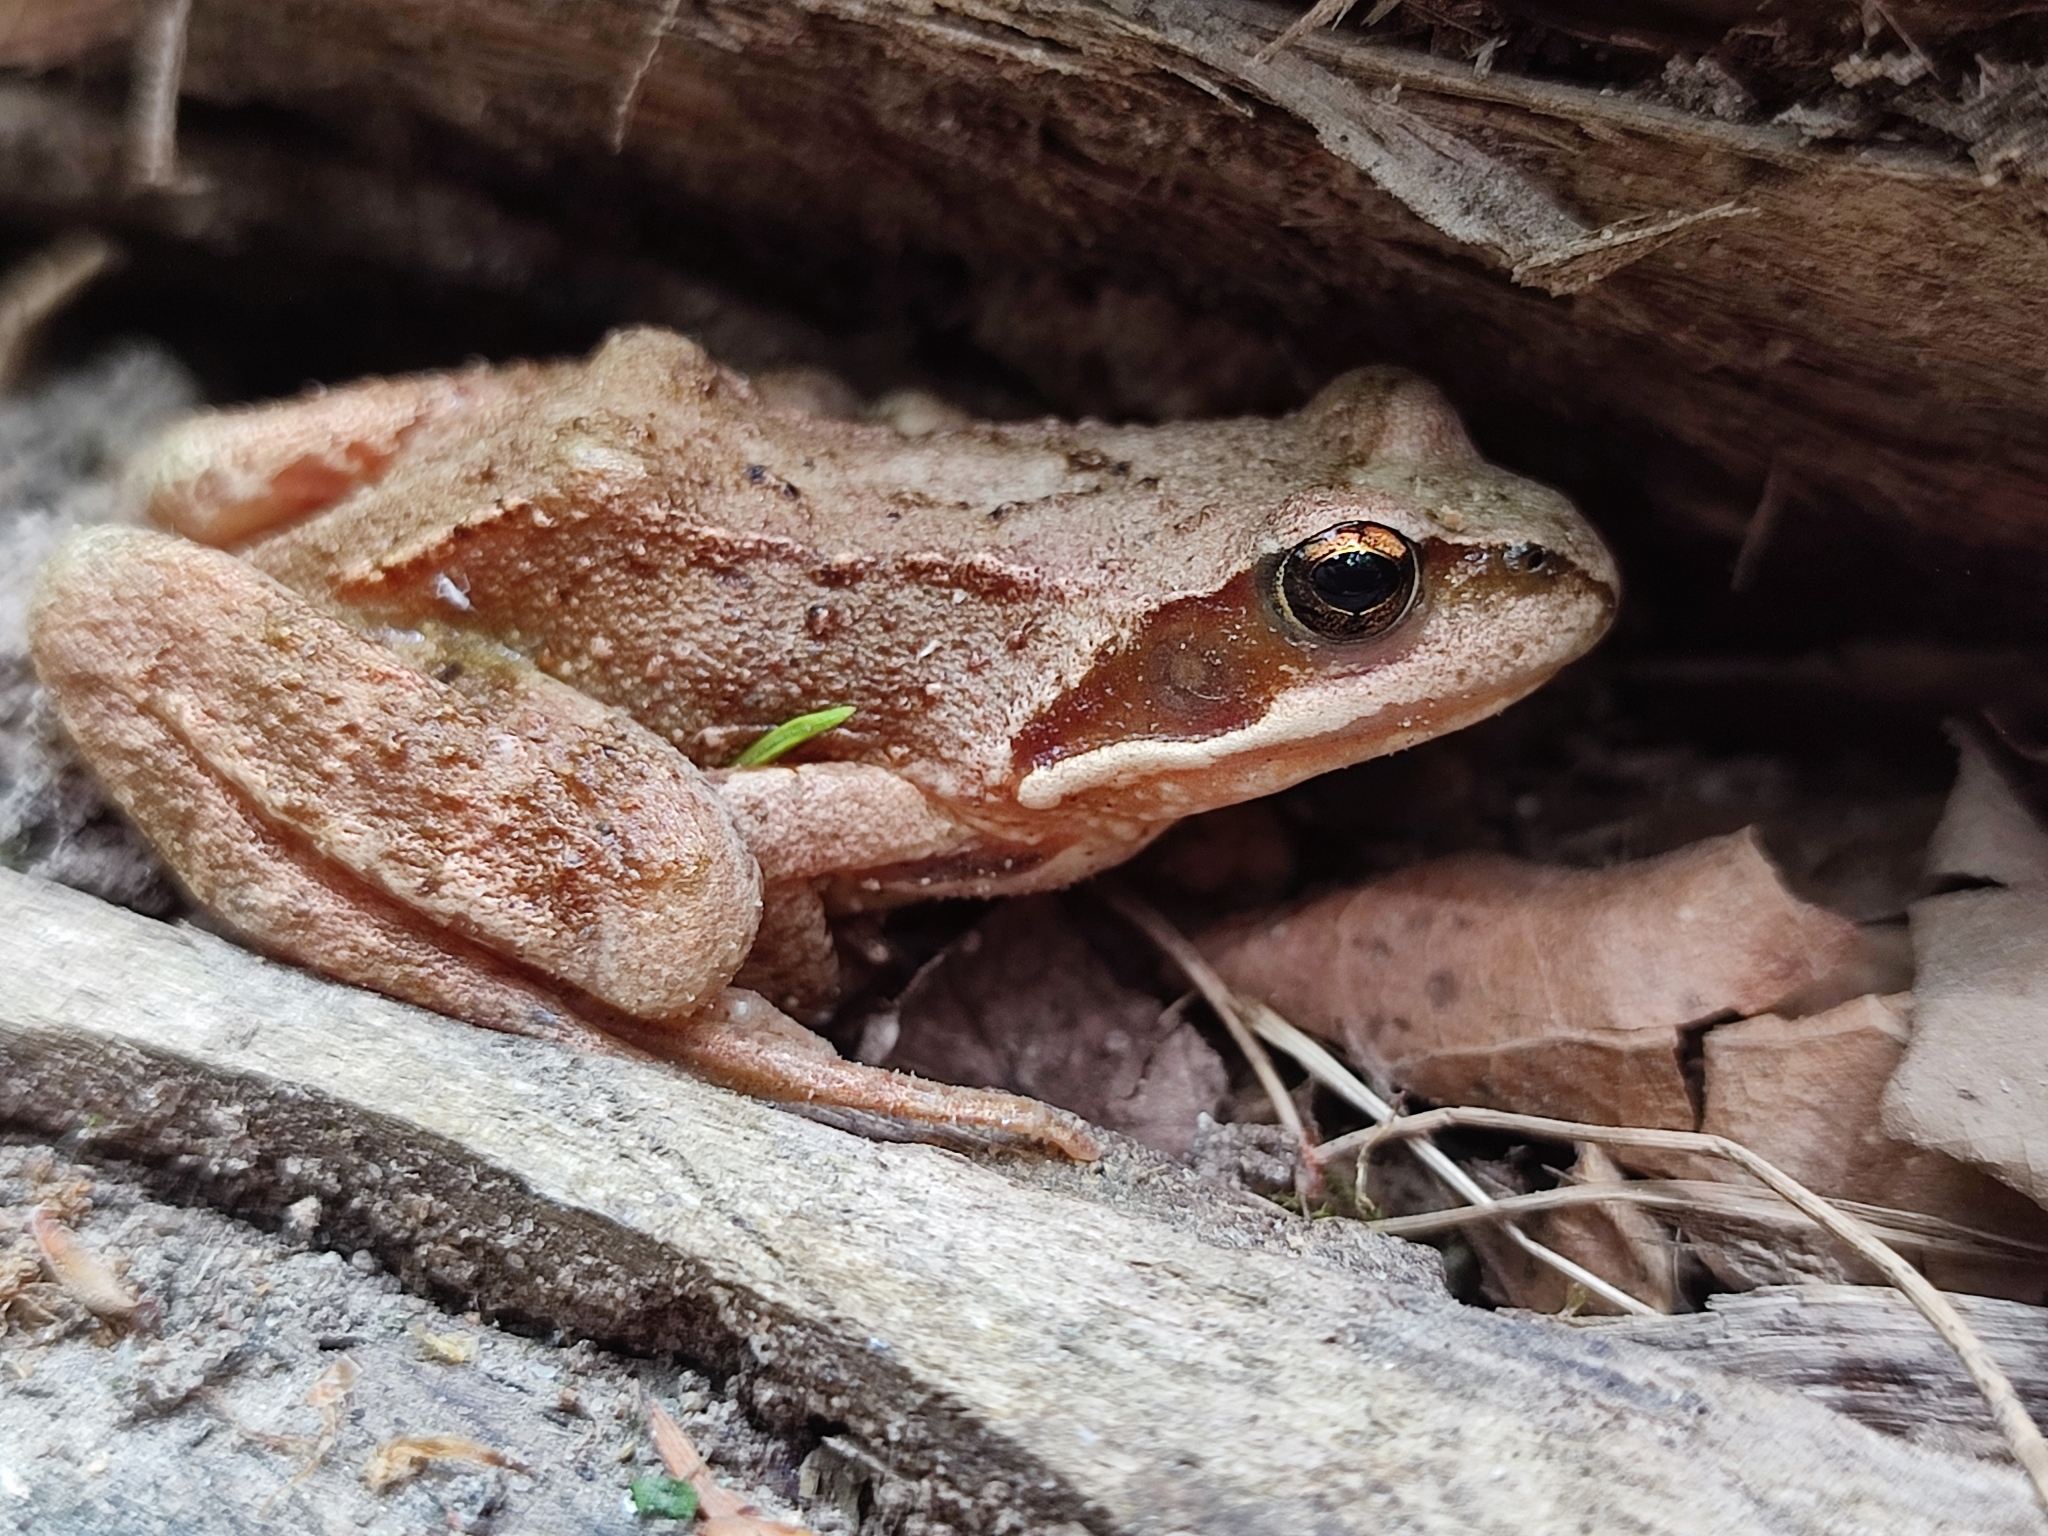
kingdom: Animalia
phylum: Chordata
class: Amphibia
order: Anura
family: Ranidae
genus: Rana
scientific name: Rana temporaria
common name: Common frog
